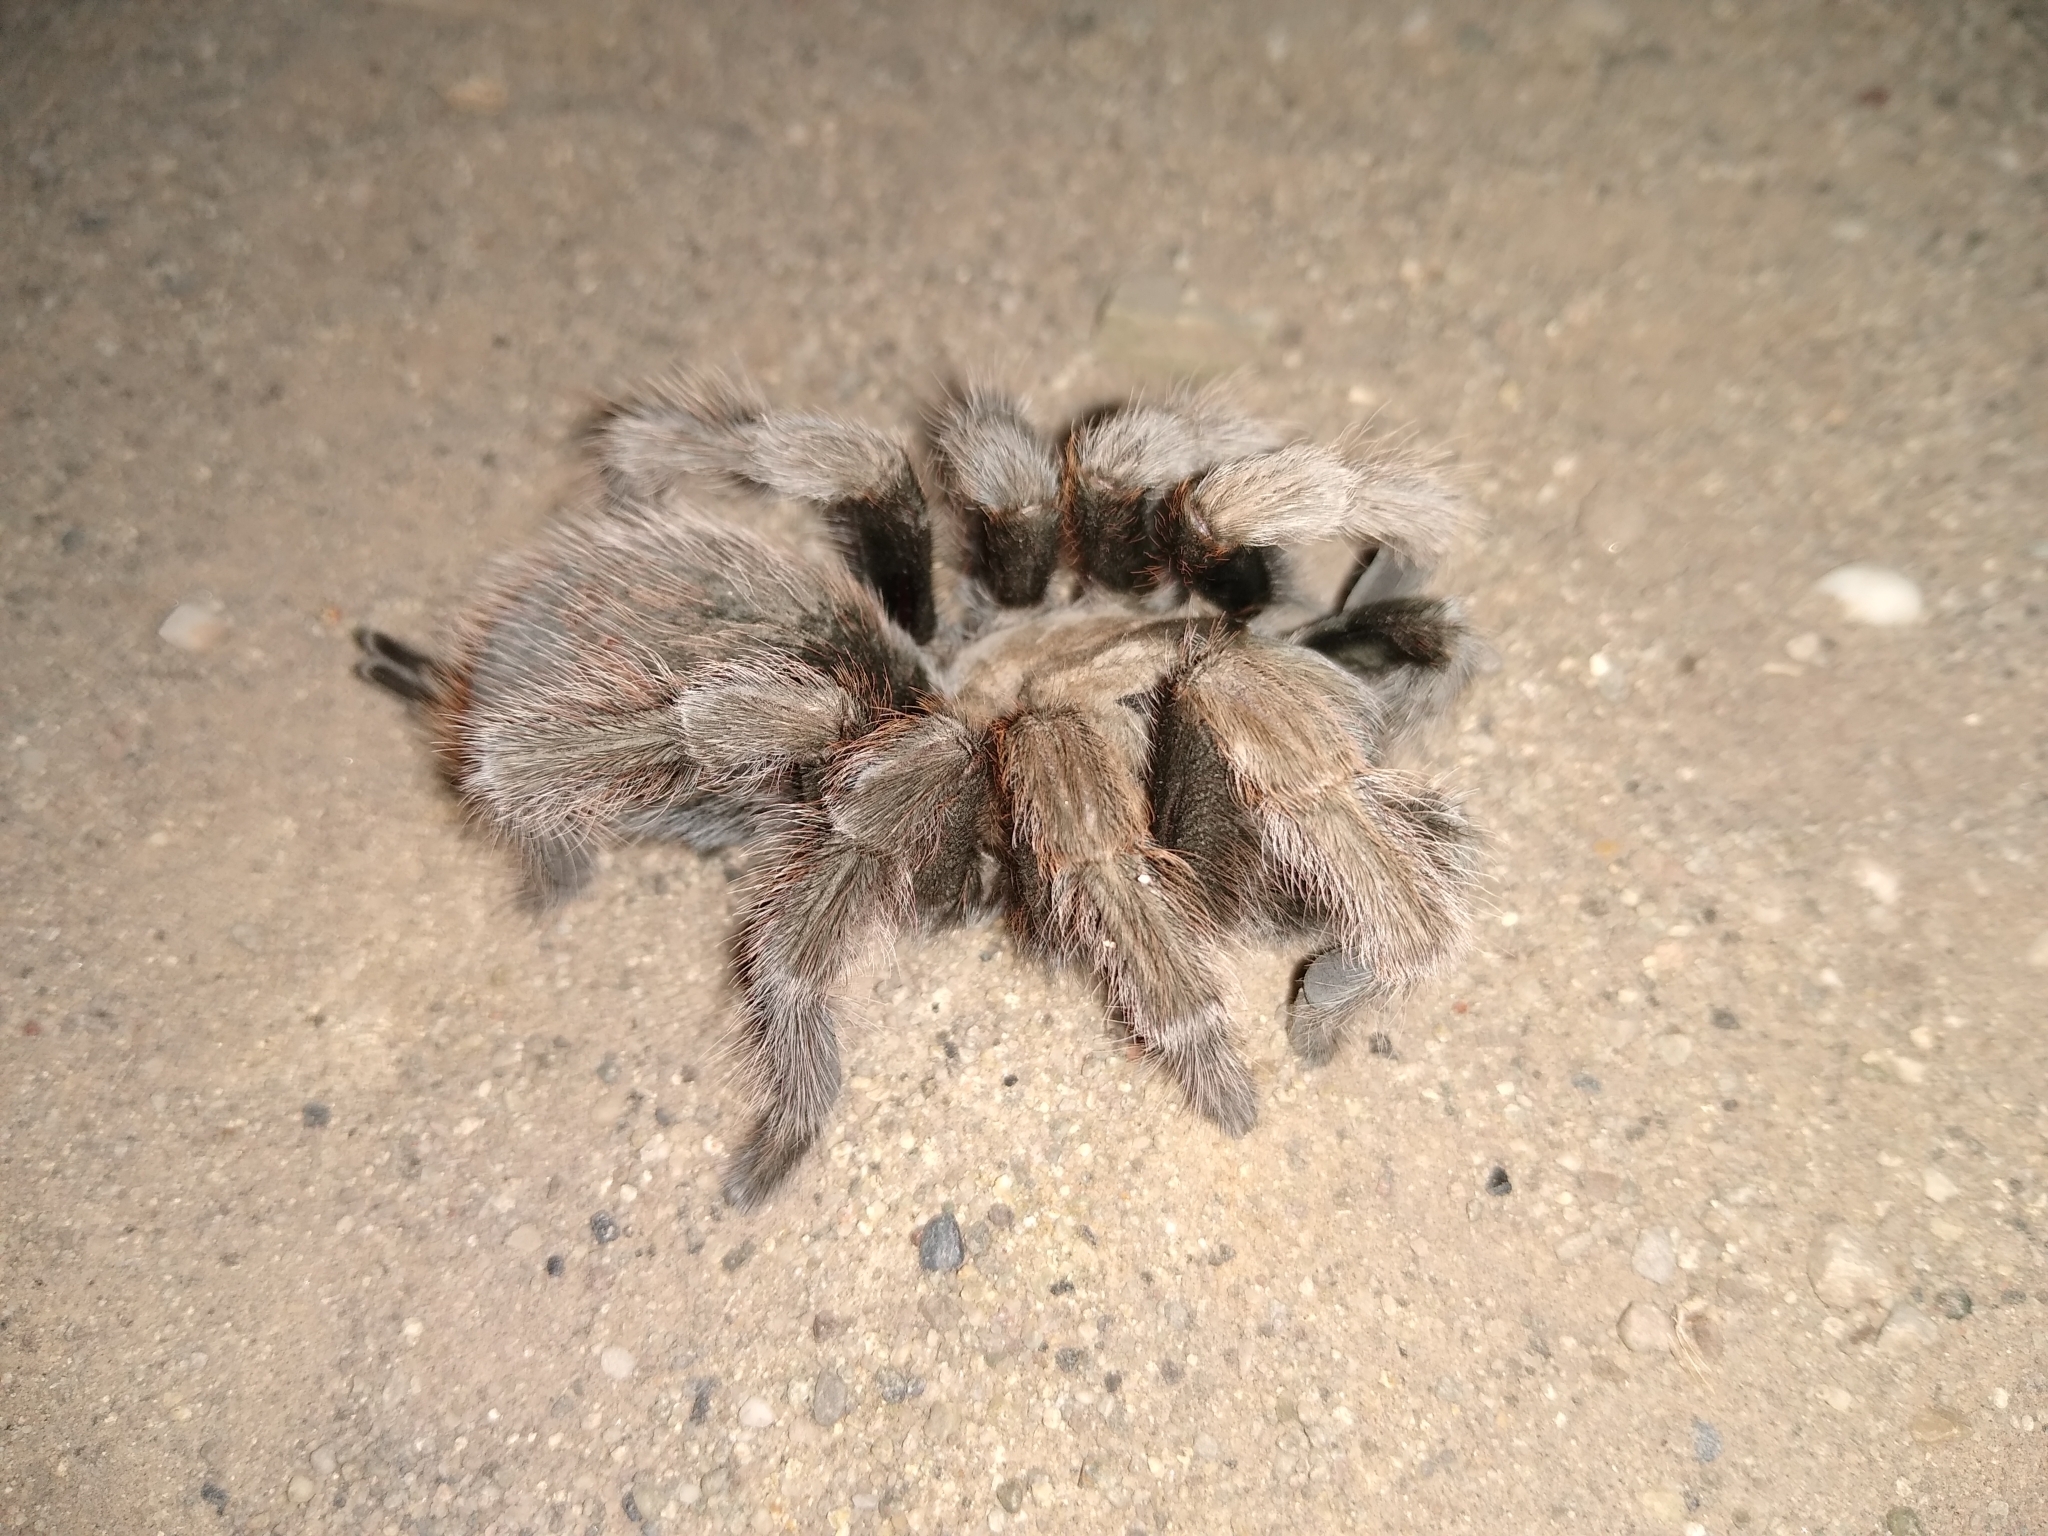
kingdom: Animalia
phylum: Arthropoda
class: Arachnida
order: Araneae
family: Theraphosidae
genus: Aphonopelma
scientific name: Aphonopelma iodius
